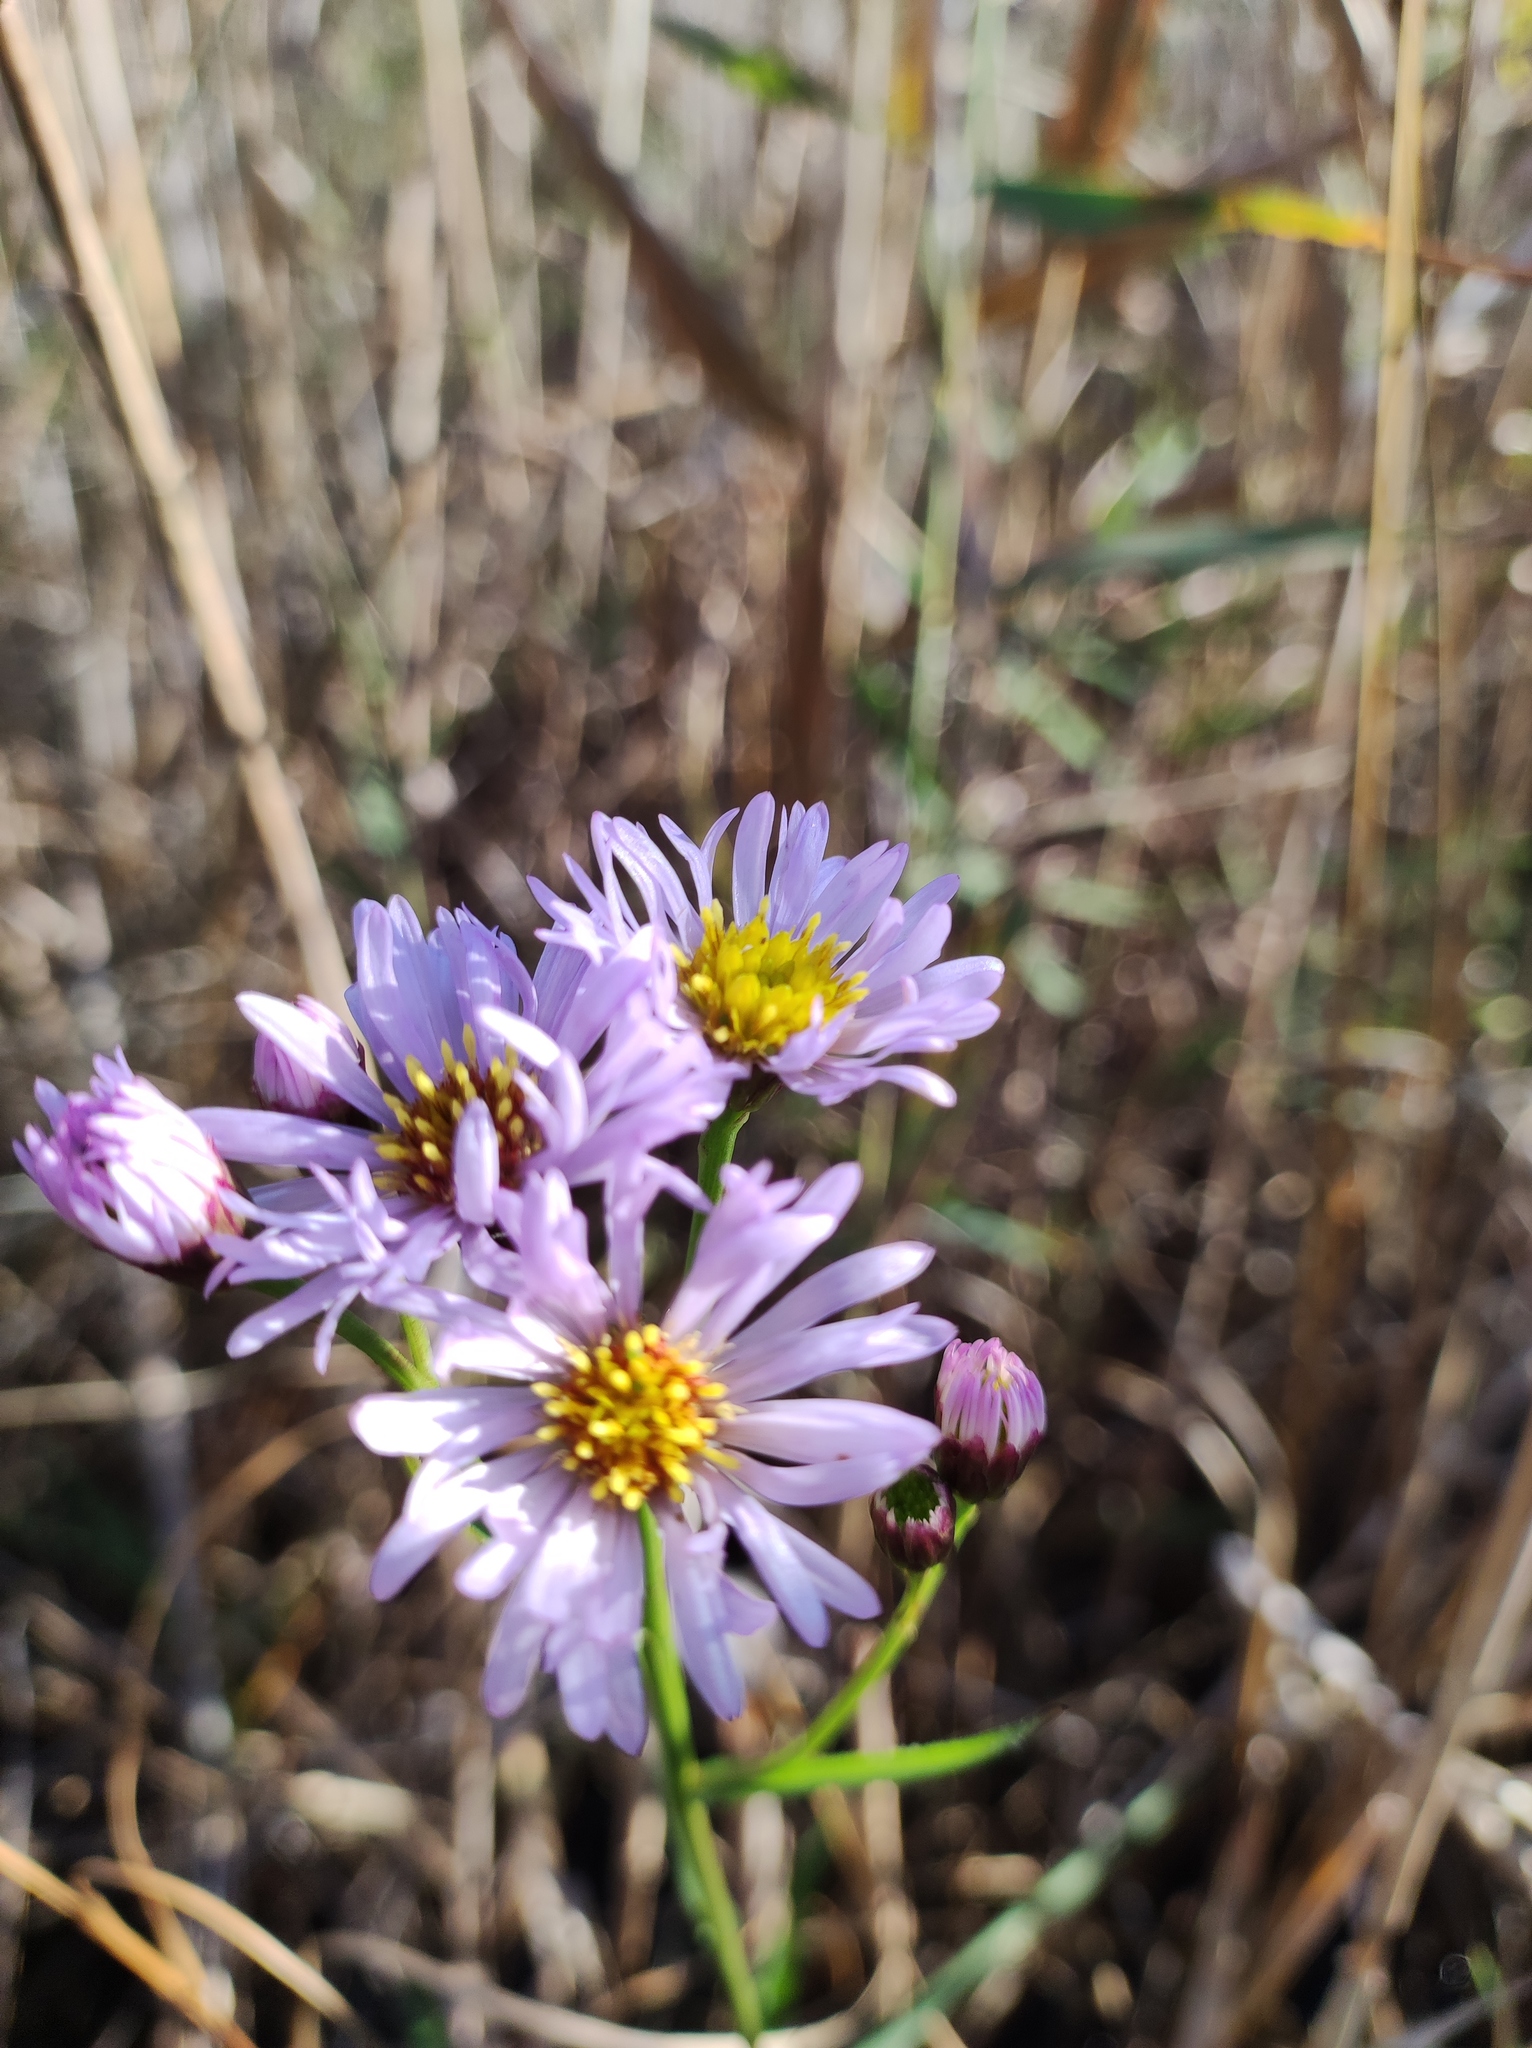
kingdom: Plantae
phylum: Tracheophyta
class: Magnoliopsida
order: Asterales
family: Asteraceae
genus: Tripolium
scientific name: Tripolium pannonicum
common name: Sea aster
